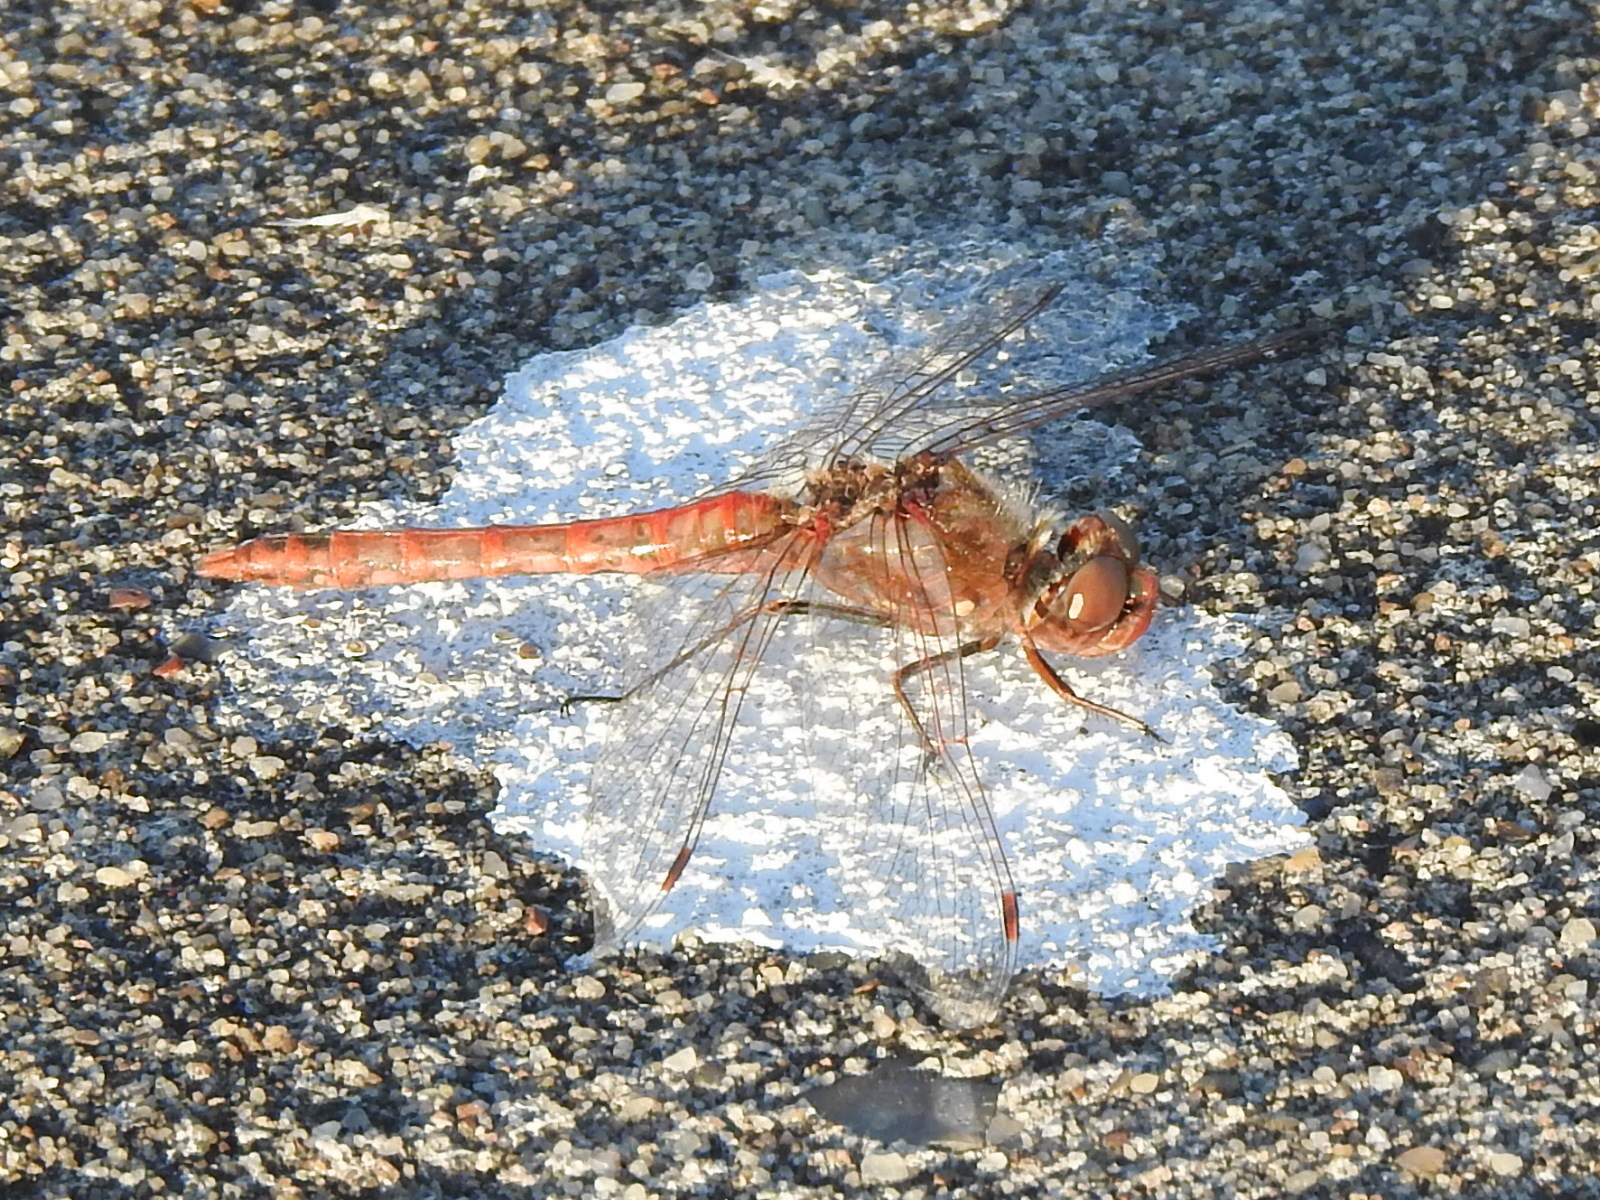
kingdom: Animalia
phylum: Arthropoda
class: Insecta
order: Odonata
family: Libellulidae
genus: Sympetrum
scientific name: Sympetrum corruptum
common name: Variegated meadowhawk
